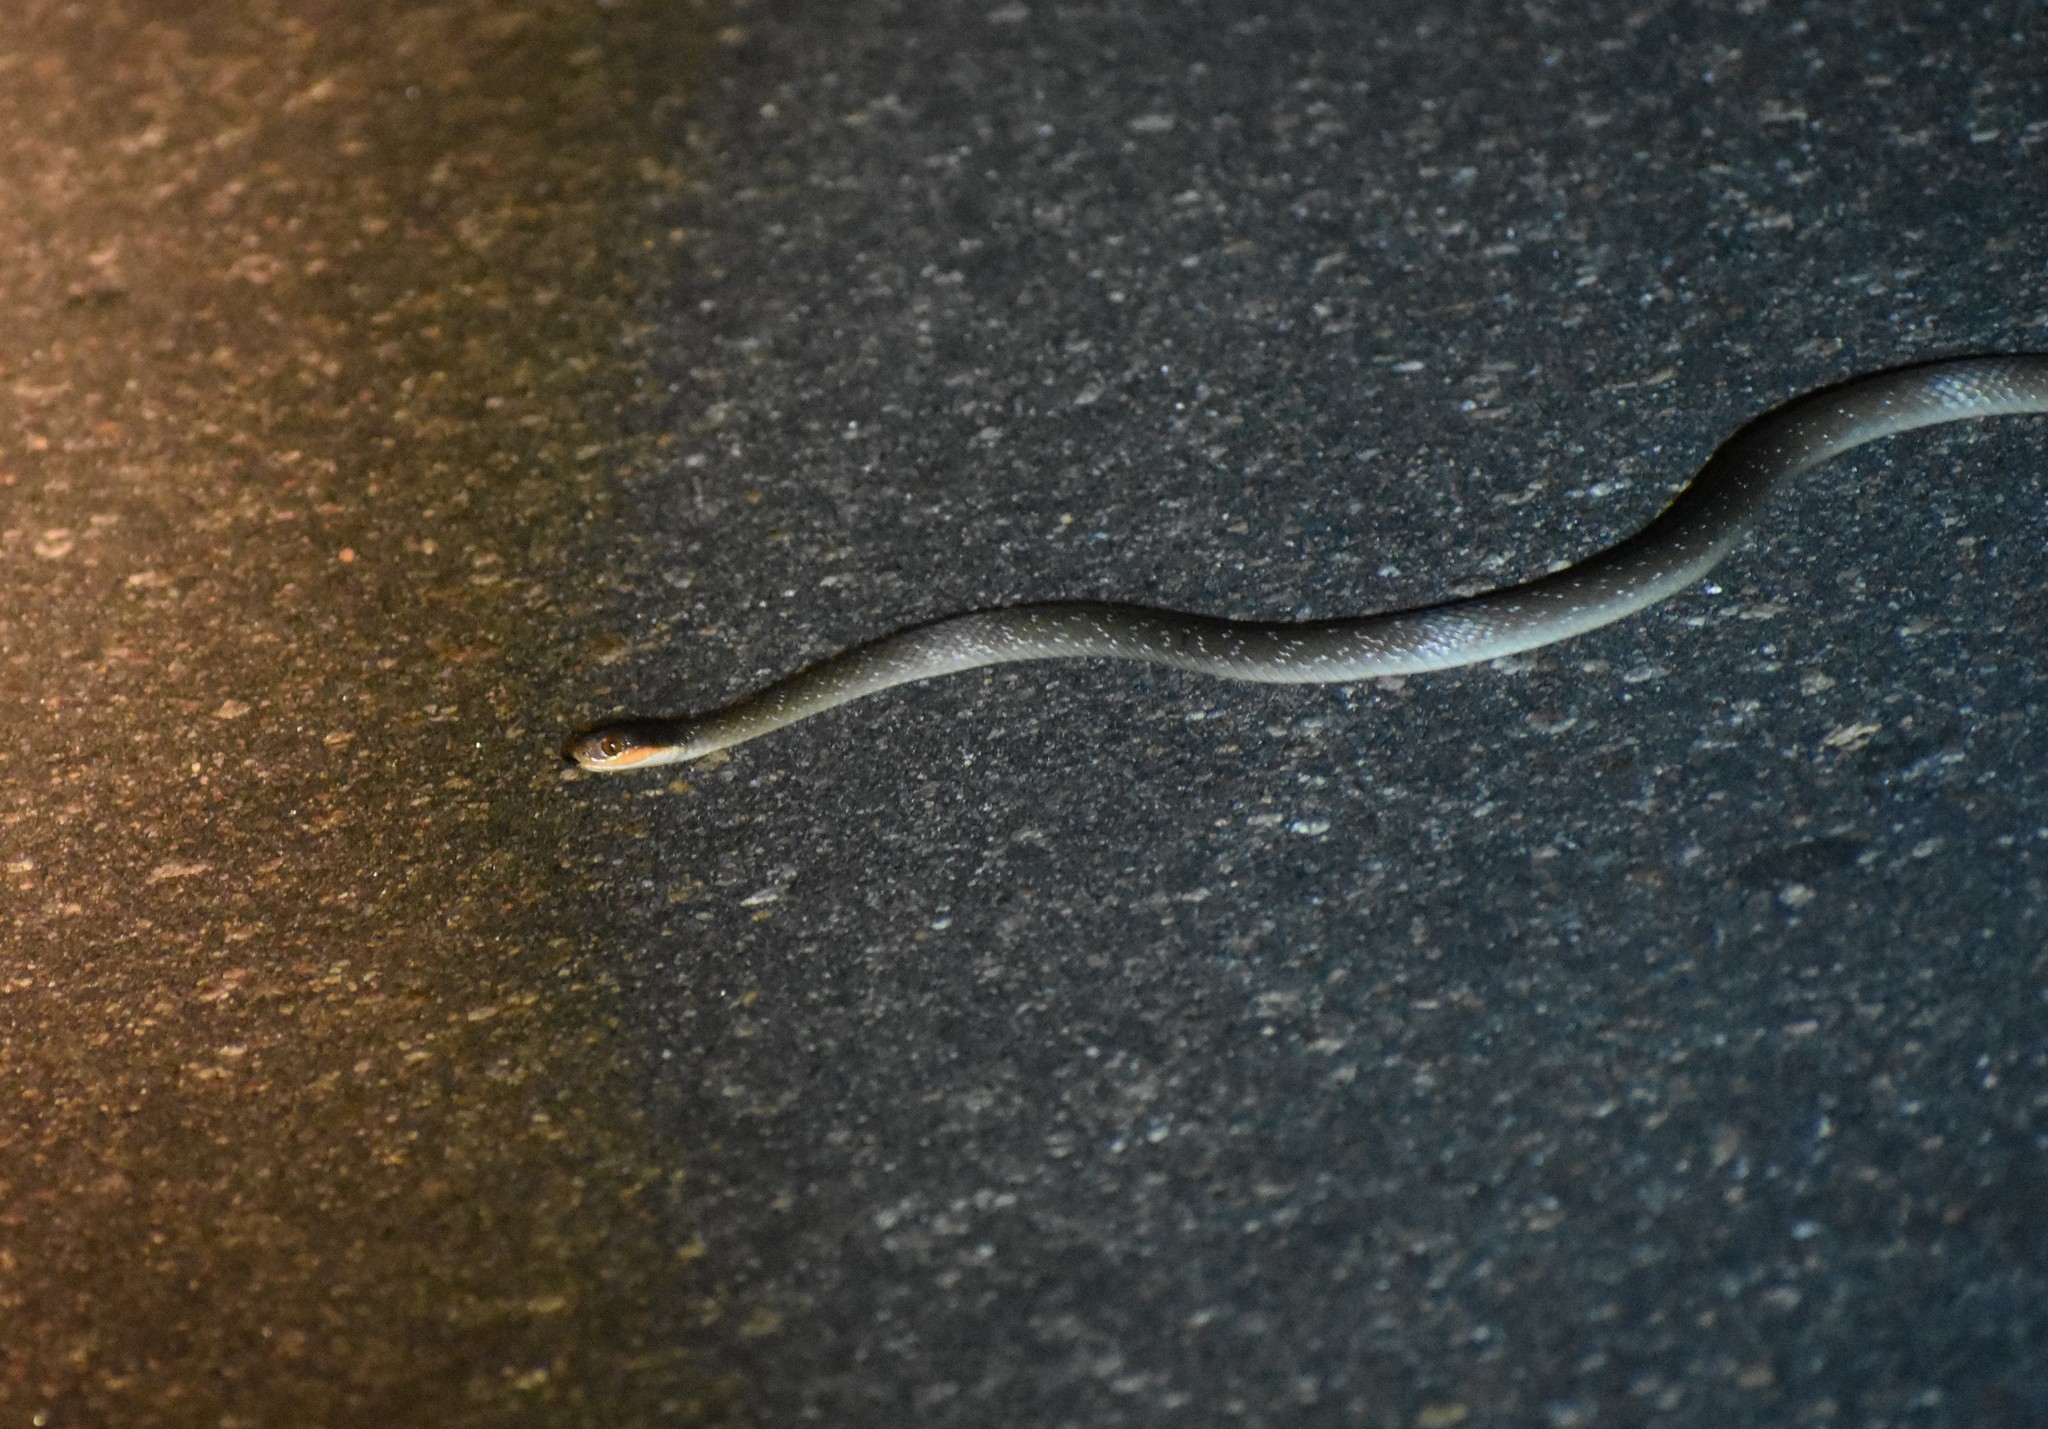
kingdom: Animalia
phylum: Chordata
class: Squamata
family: Colubridae
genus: Crotaphopeltis
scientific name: Crotaphopeltis hotamboeia
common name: Red-lipped snake
